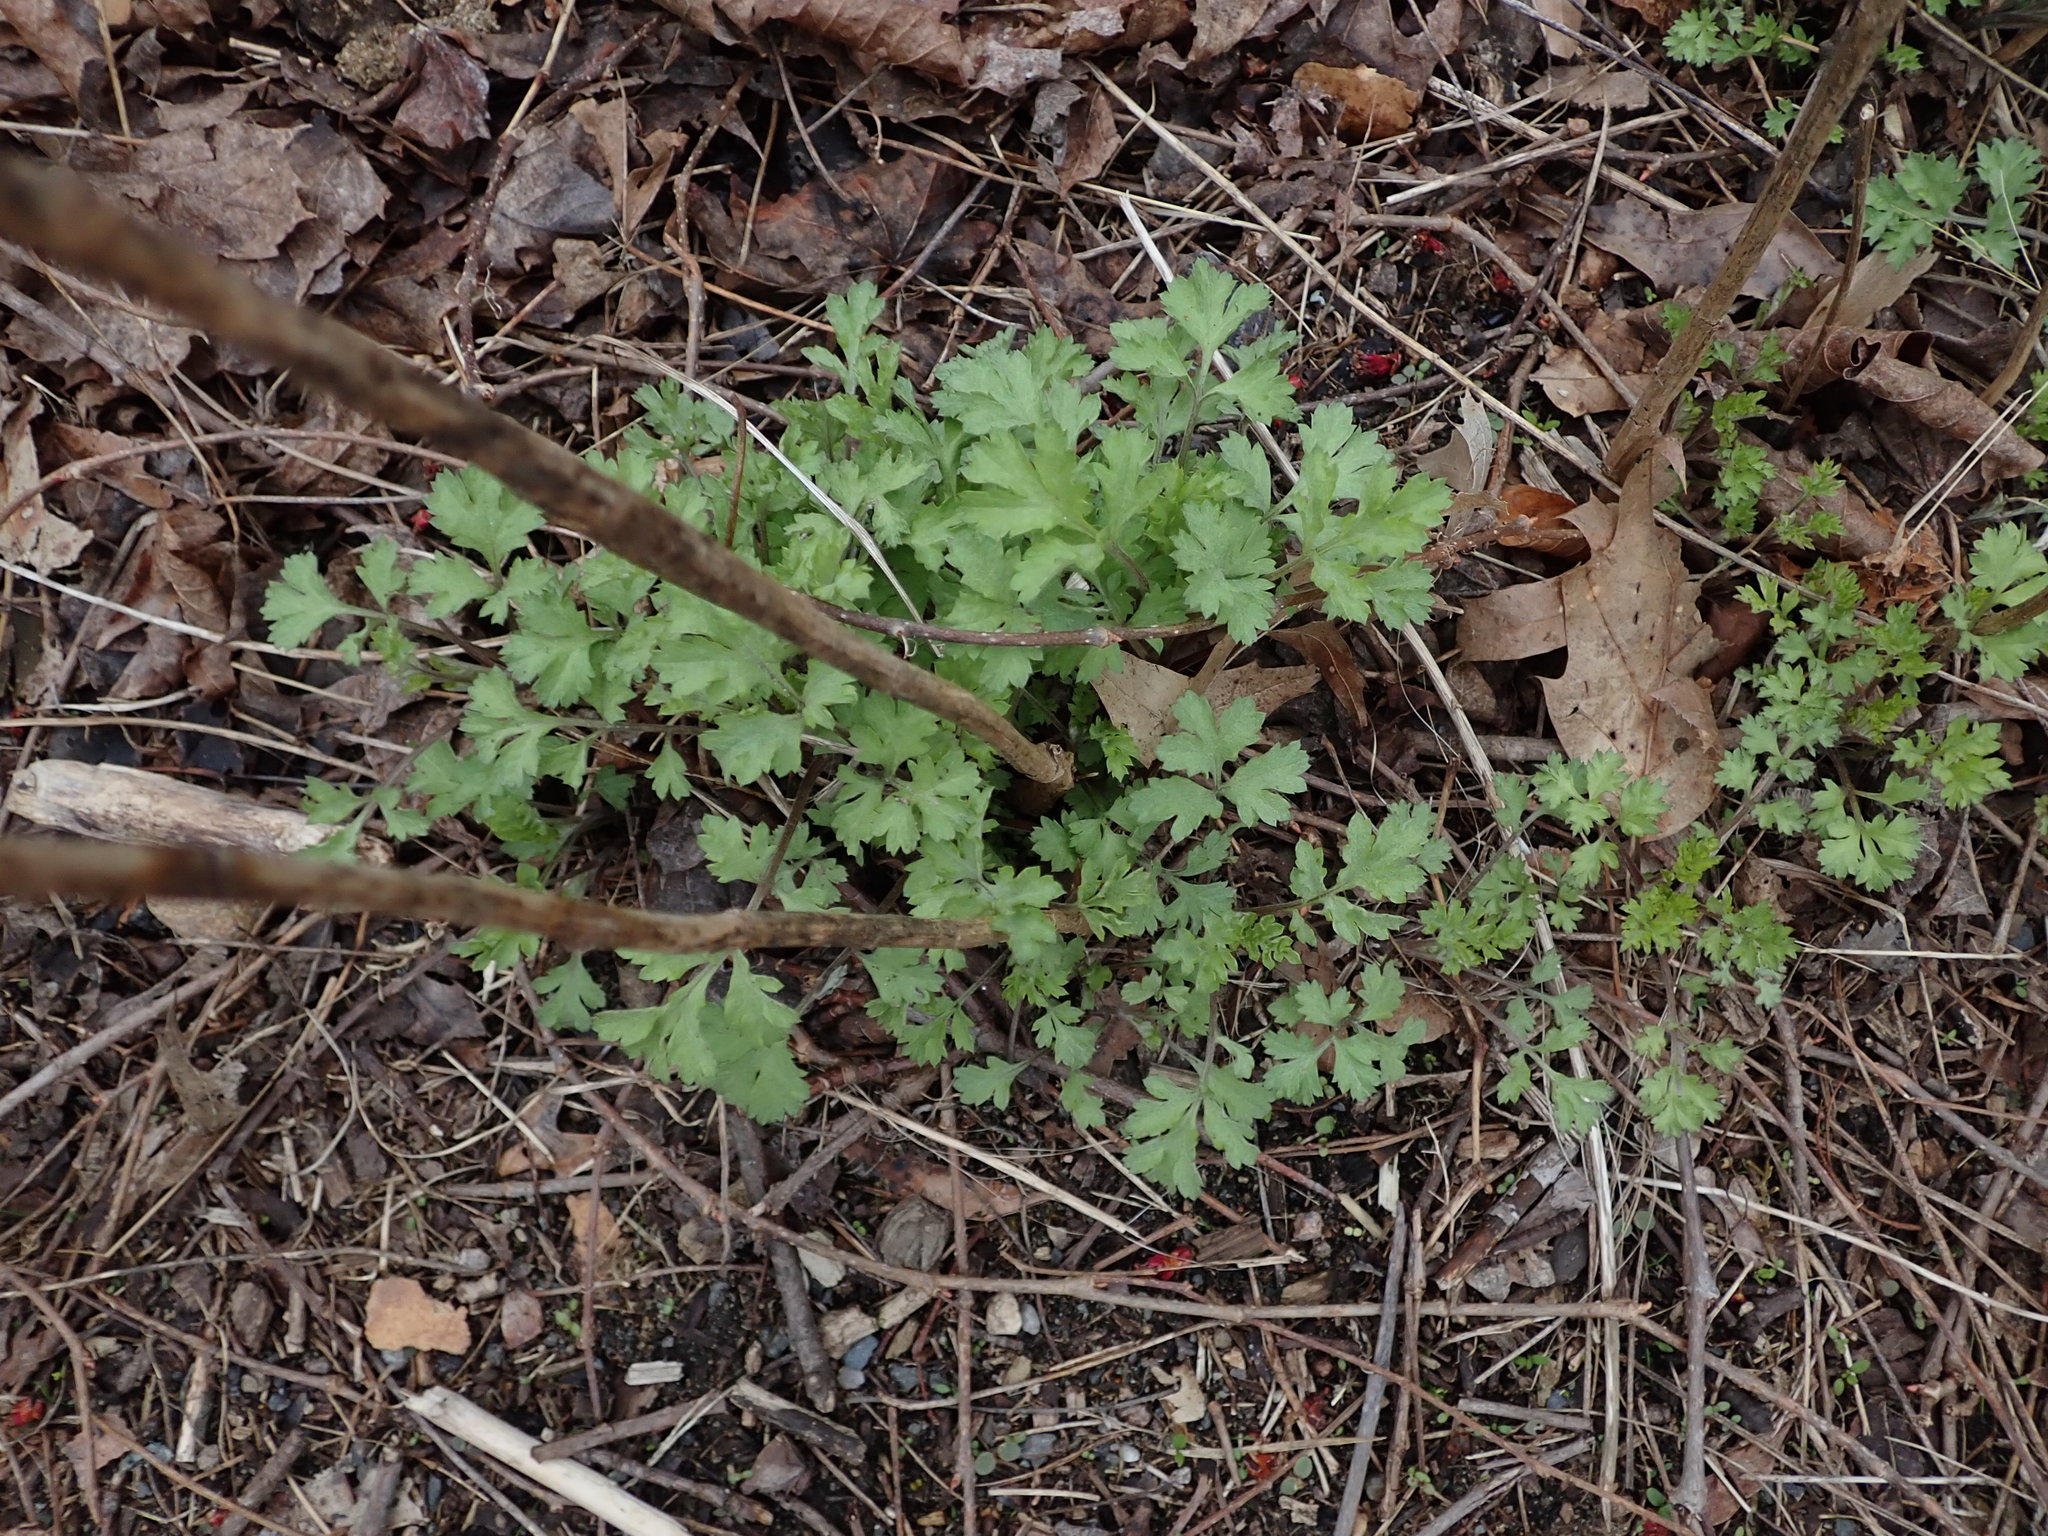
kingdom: Plantae
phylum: Tracheophyta
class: Magnoliopsida
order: Asterales
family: Asteraceae
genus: Artemisia
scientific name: Artemisia vulgaris
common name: Mugwort
